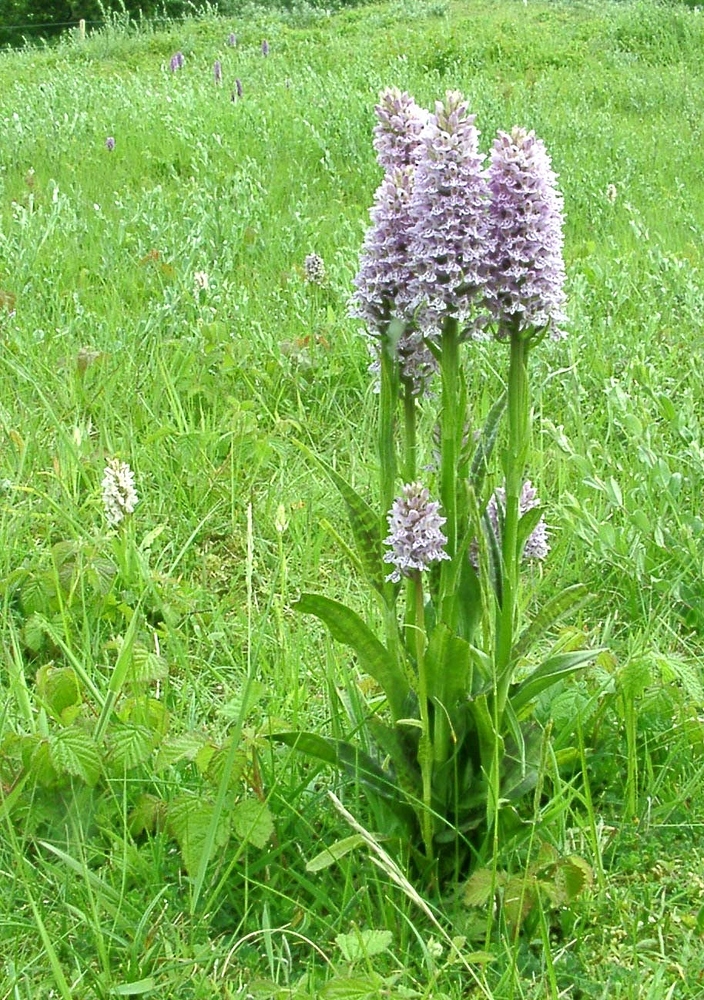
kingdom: Plantae
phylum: Tracheophyta
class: Liliopsida
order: Asparagales
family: Orchidaceae
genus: Dactylorhiza
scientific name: Dactylorhiza grandis
